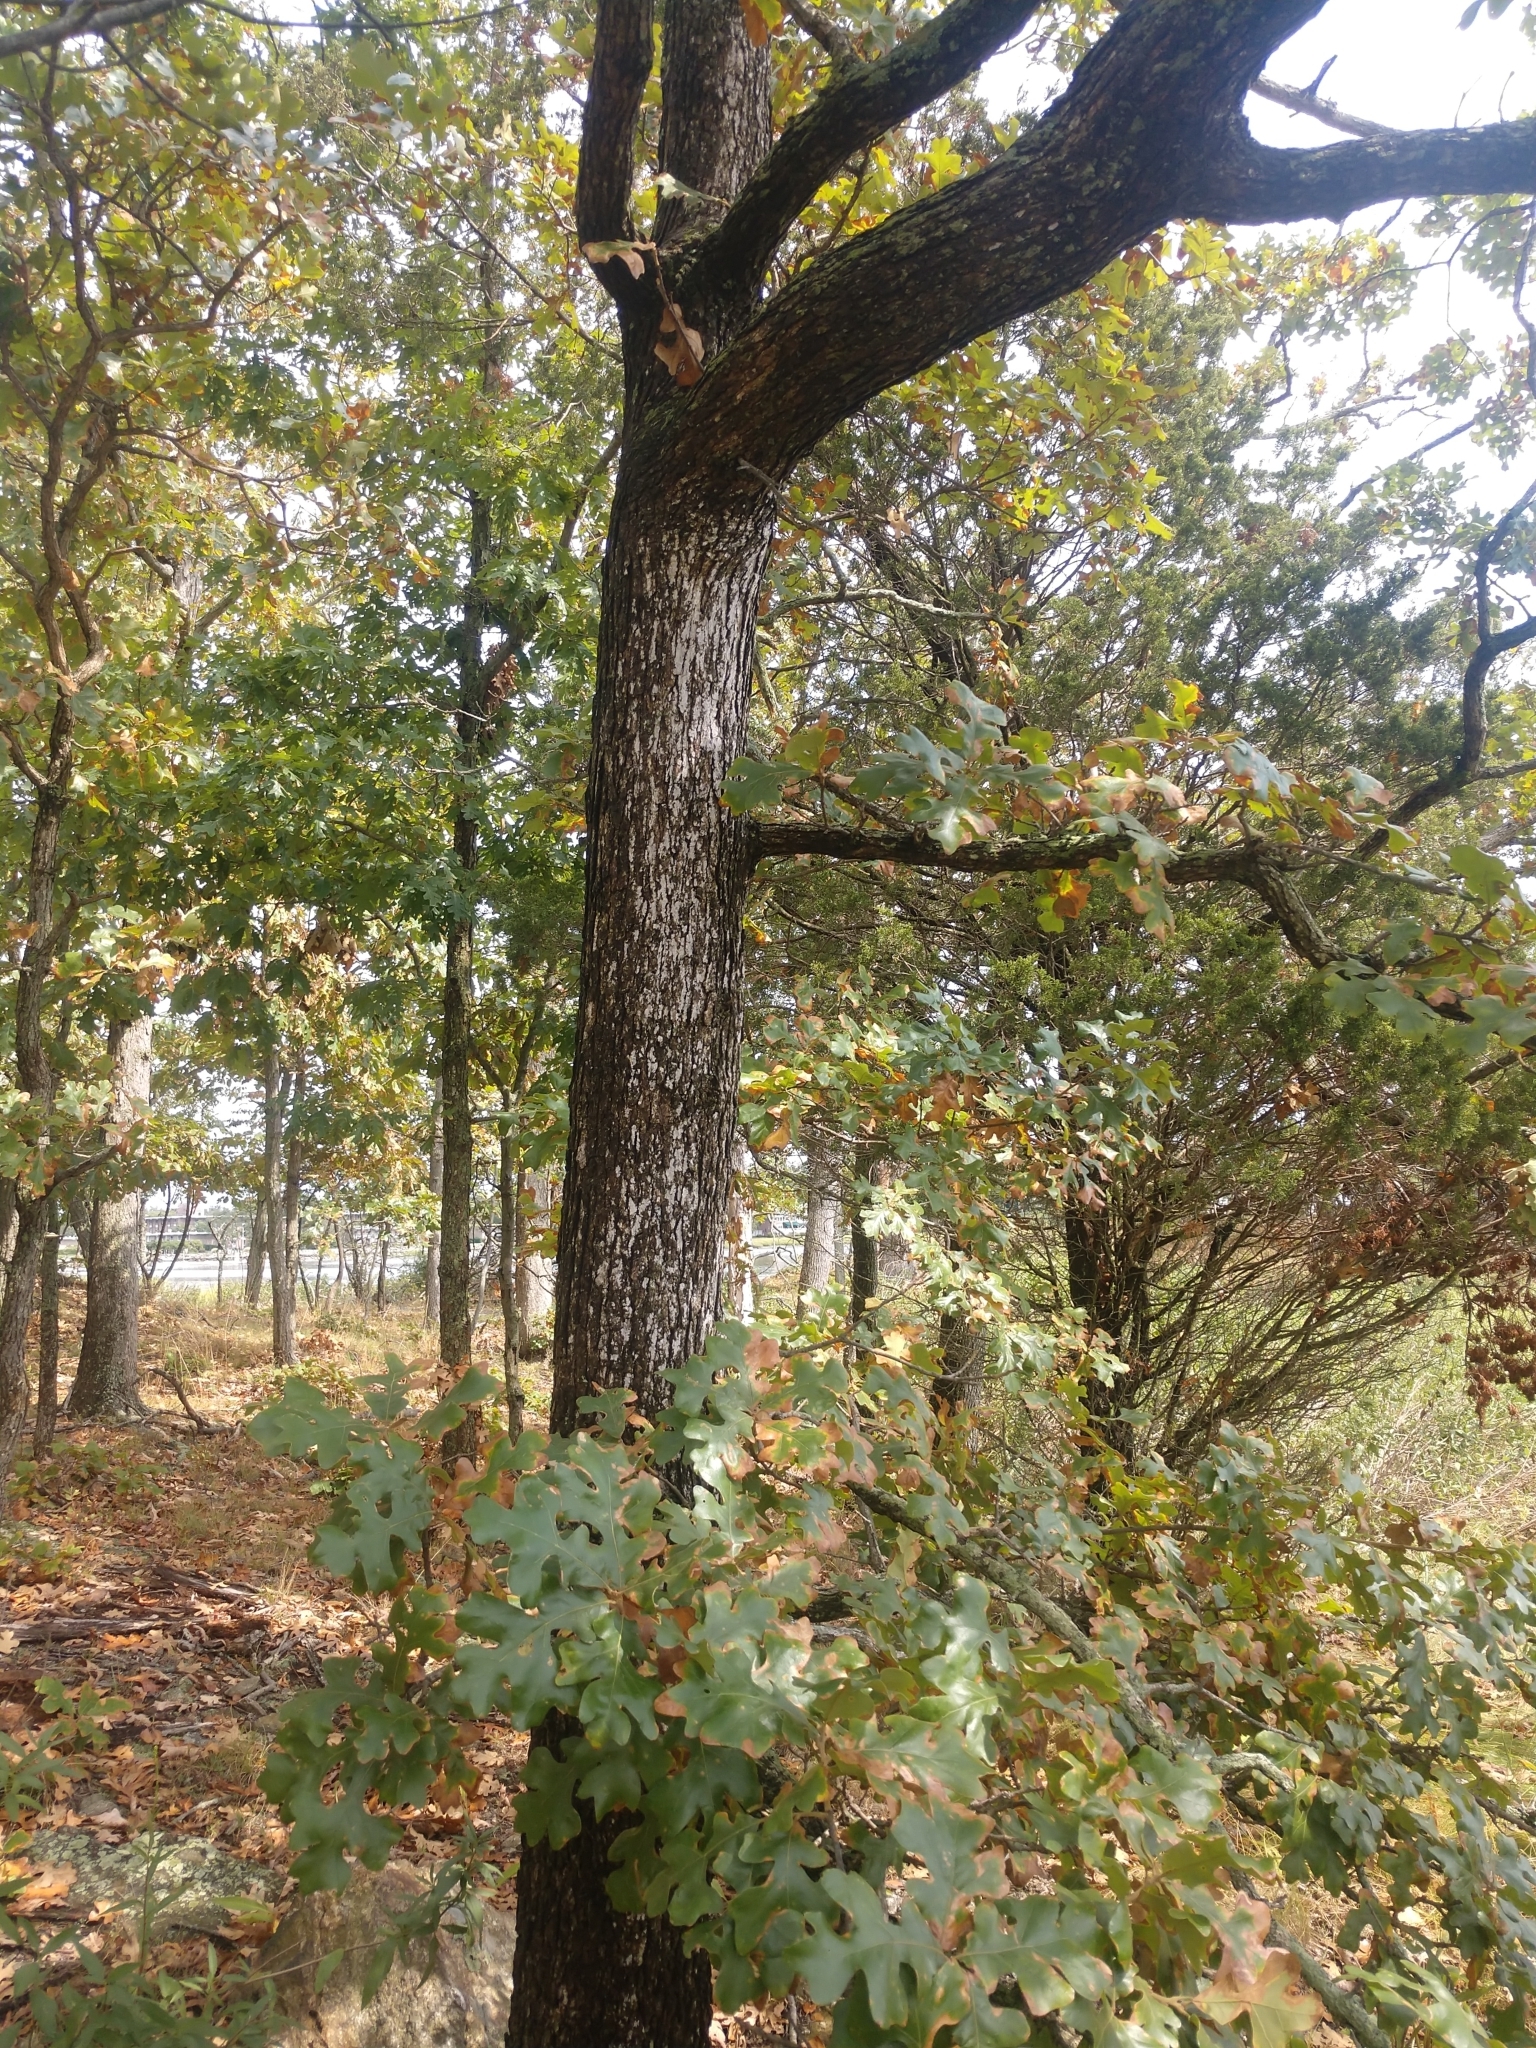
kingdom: Plantae
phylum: Tracheophyta
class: Magnoliopsida
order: Fagales
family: Fagaceae
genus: Quercus
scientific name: Quercus stellata
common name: Post oak
